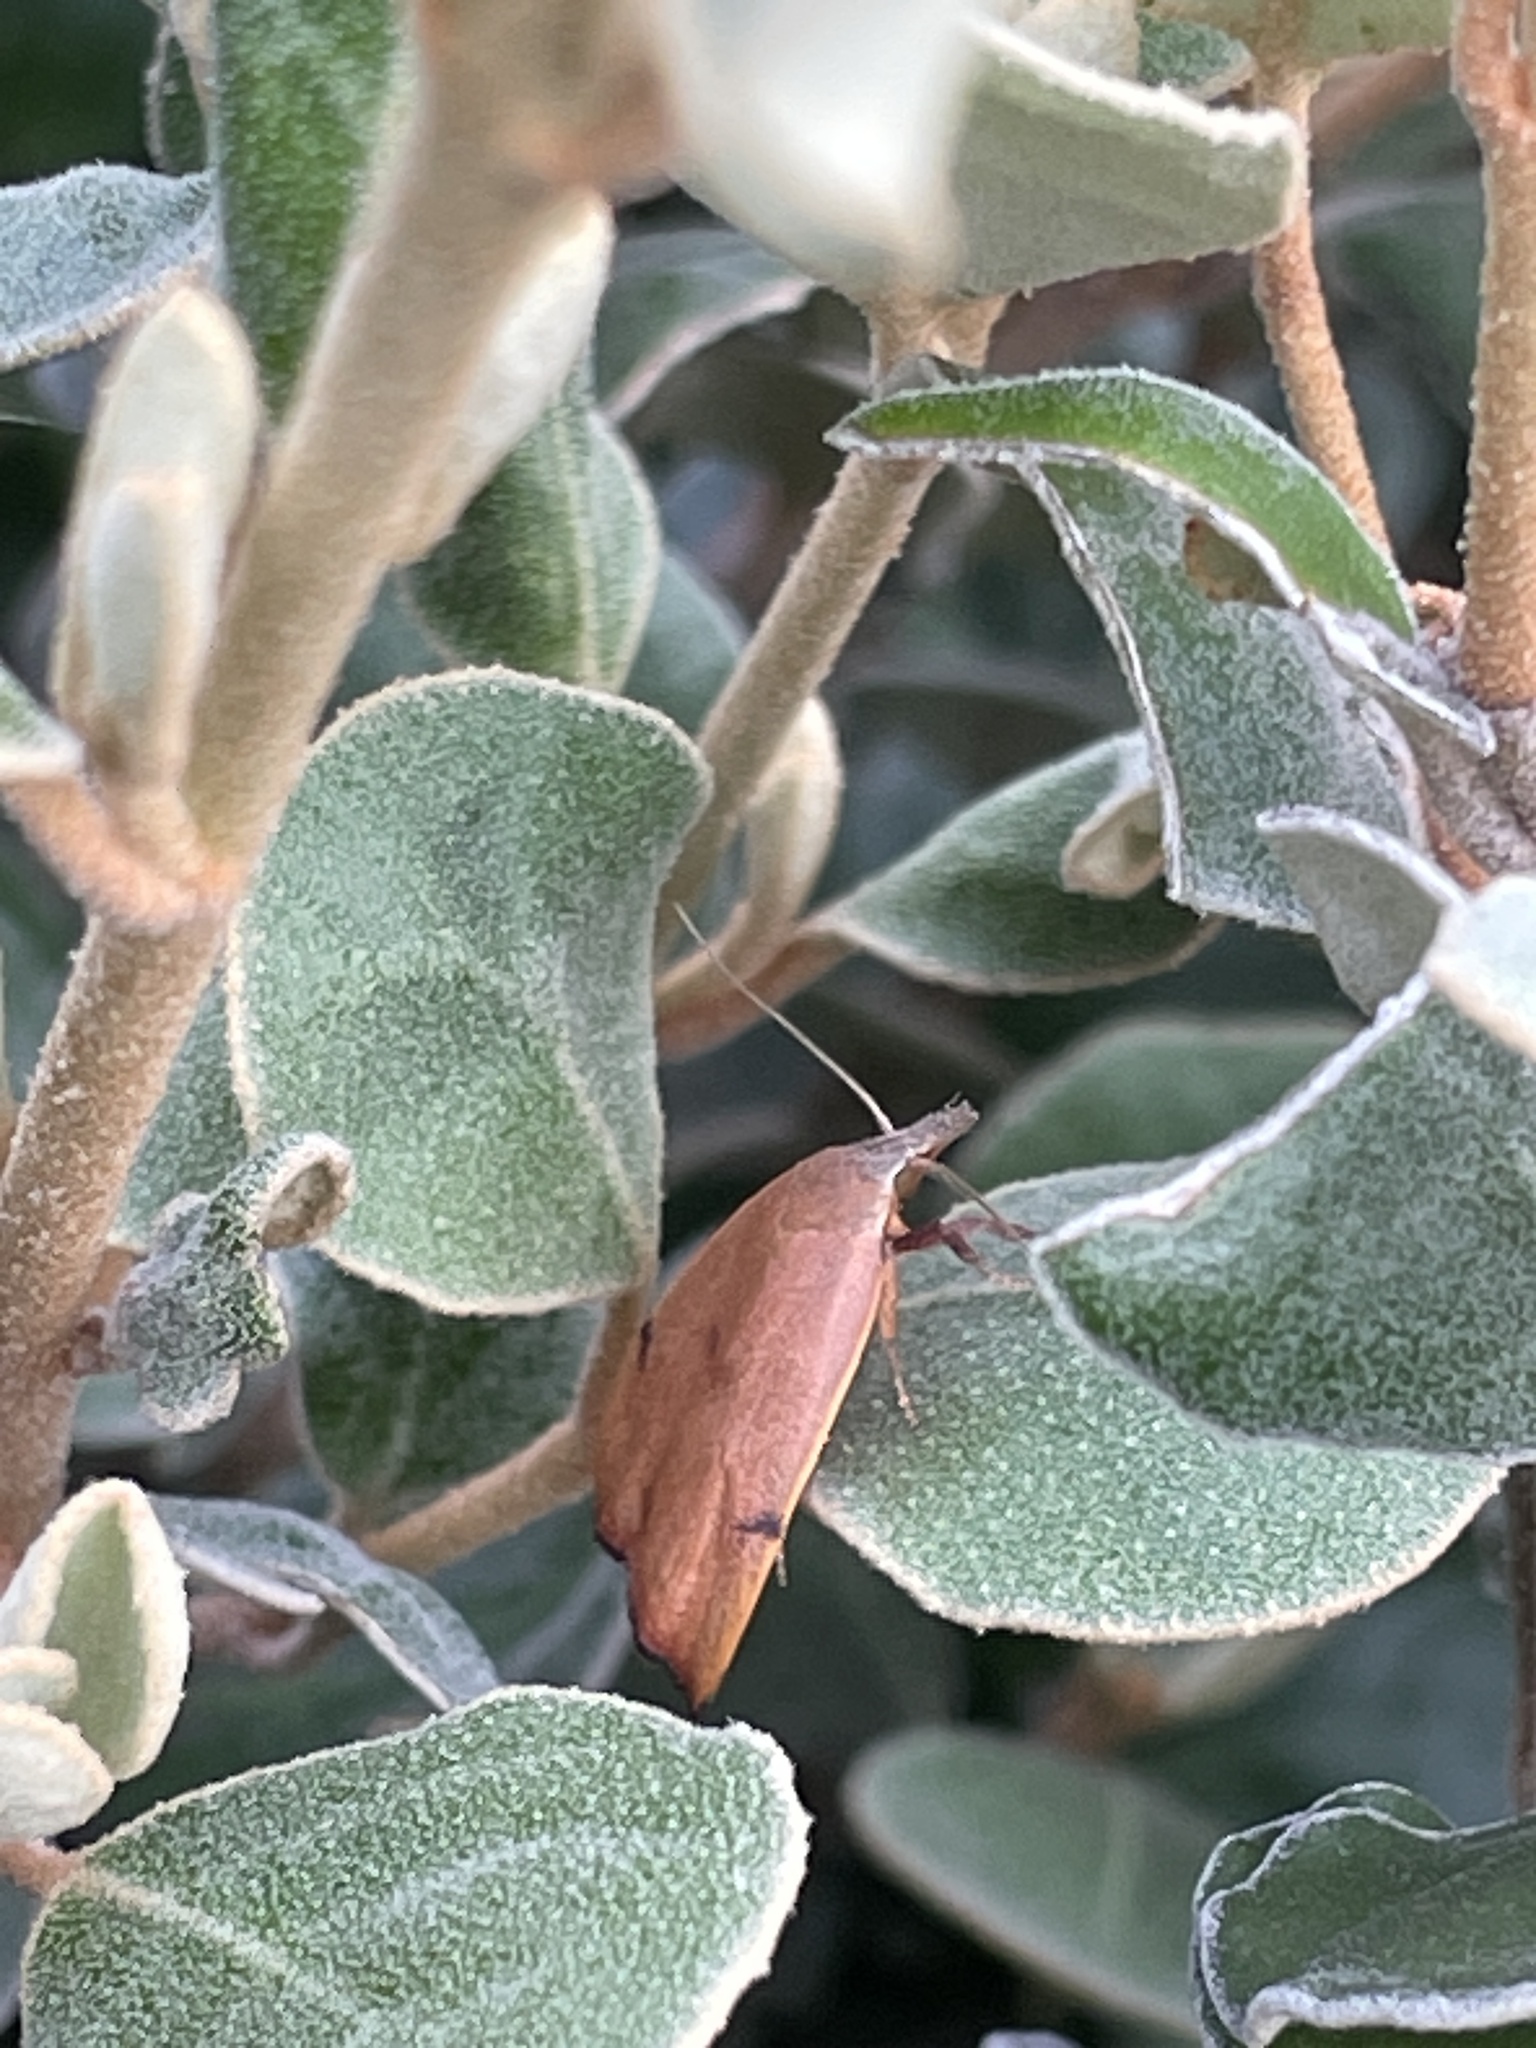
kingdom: Animalia
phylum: Arthropoda
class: Insecta
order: Lepidoptera
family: Oecophoridae
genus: Tortricopsis
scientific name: Tortricopsis uncinella
